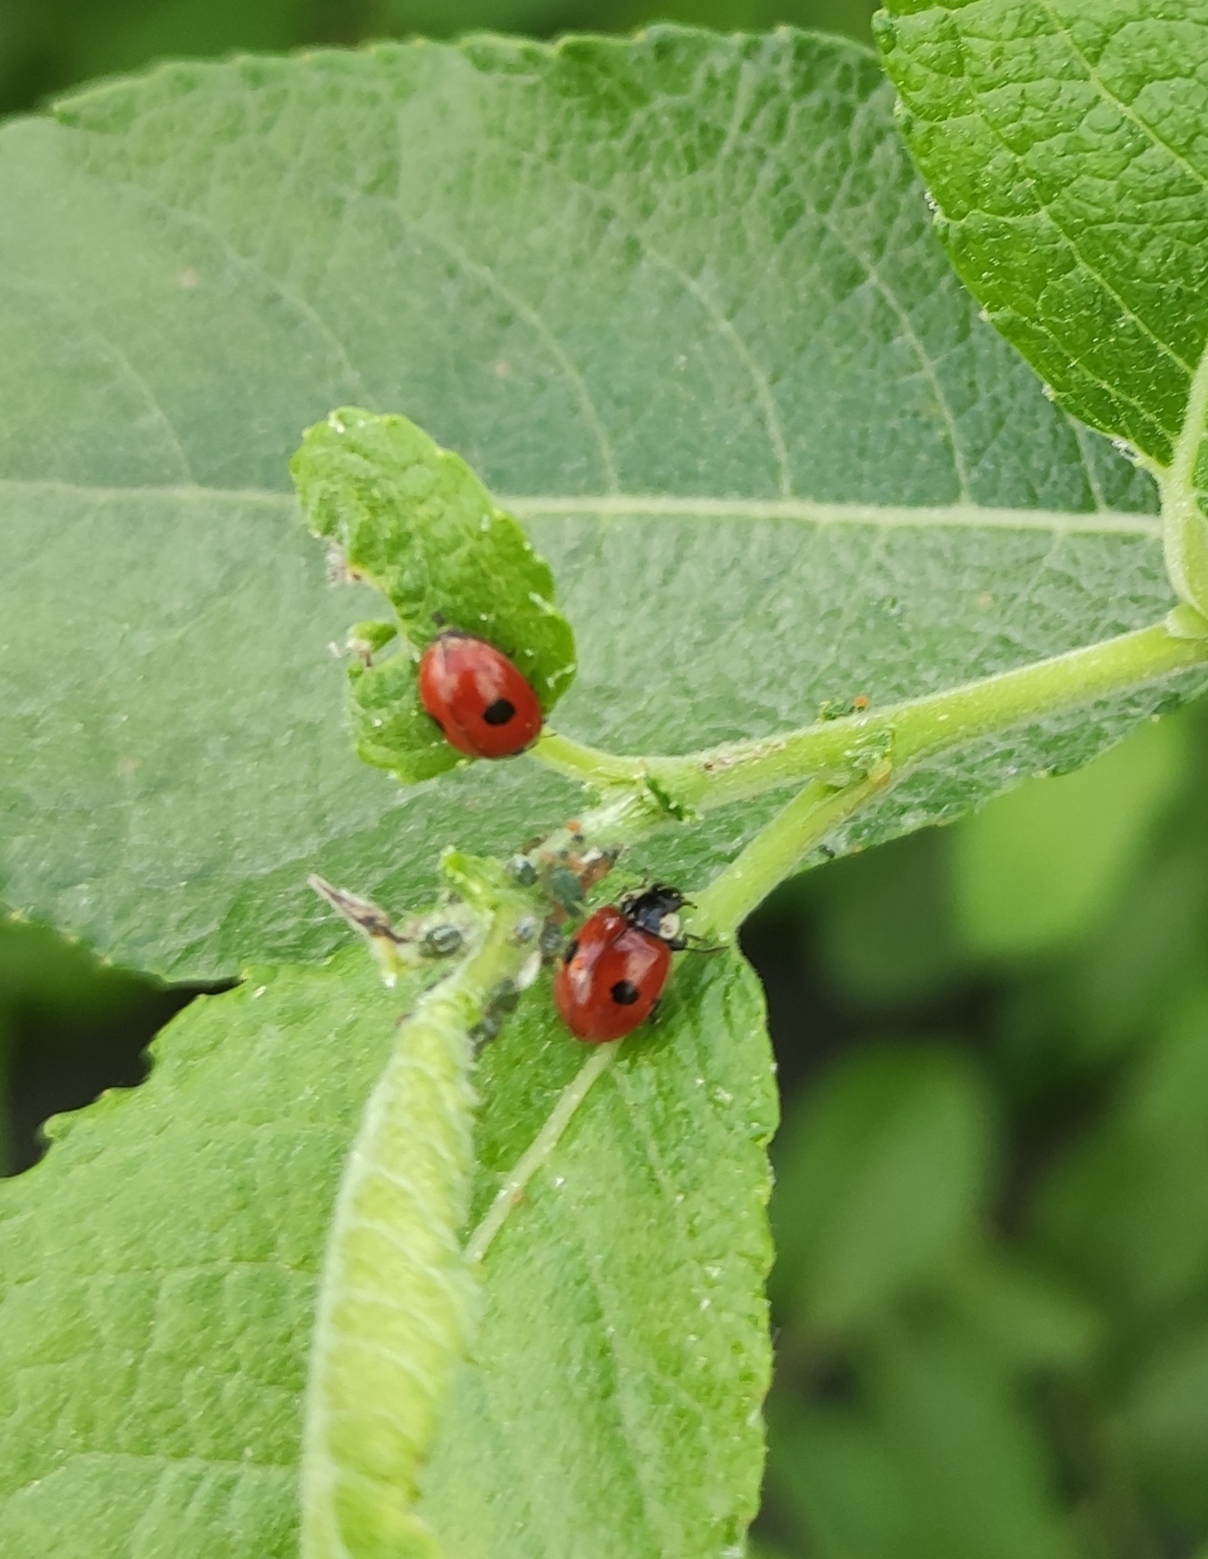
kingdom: Animalia
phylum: Arthropoda
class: Insecta
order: Coleoptera
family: Coccinellidae
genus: Adalia
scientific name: Adalia bipunctata
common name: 2-spot ladybird
